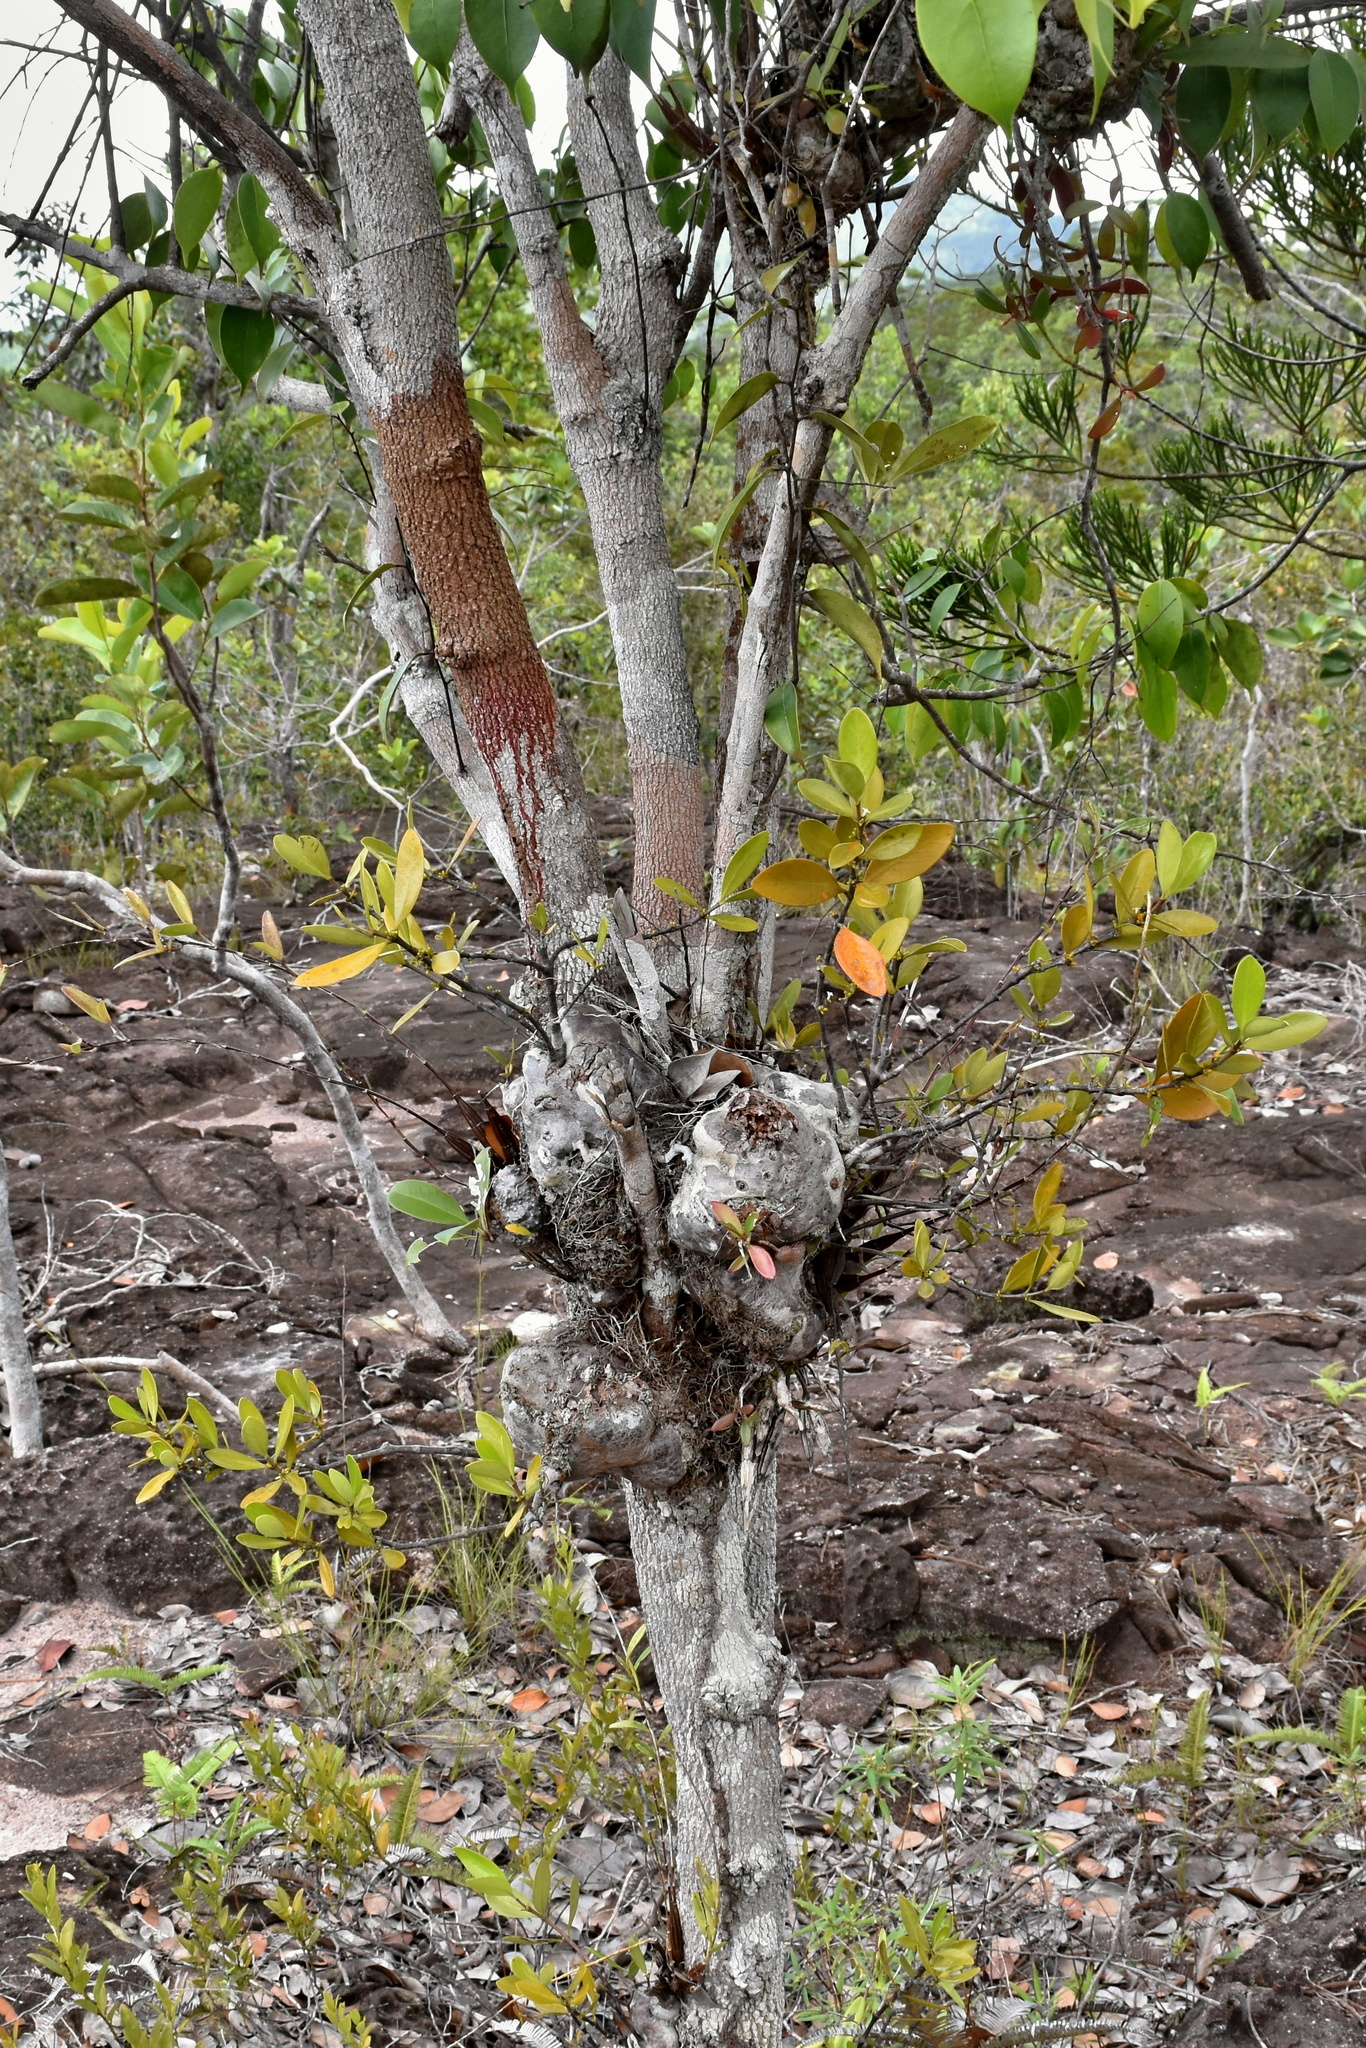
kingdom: Plantae
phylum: Tracheophyta
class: Magnoliopsida
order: Gentianales
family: Rubiaceae
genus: Hydnophytum
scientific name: Hydnophytum formicarum
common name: Ant plant
